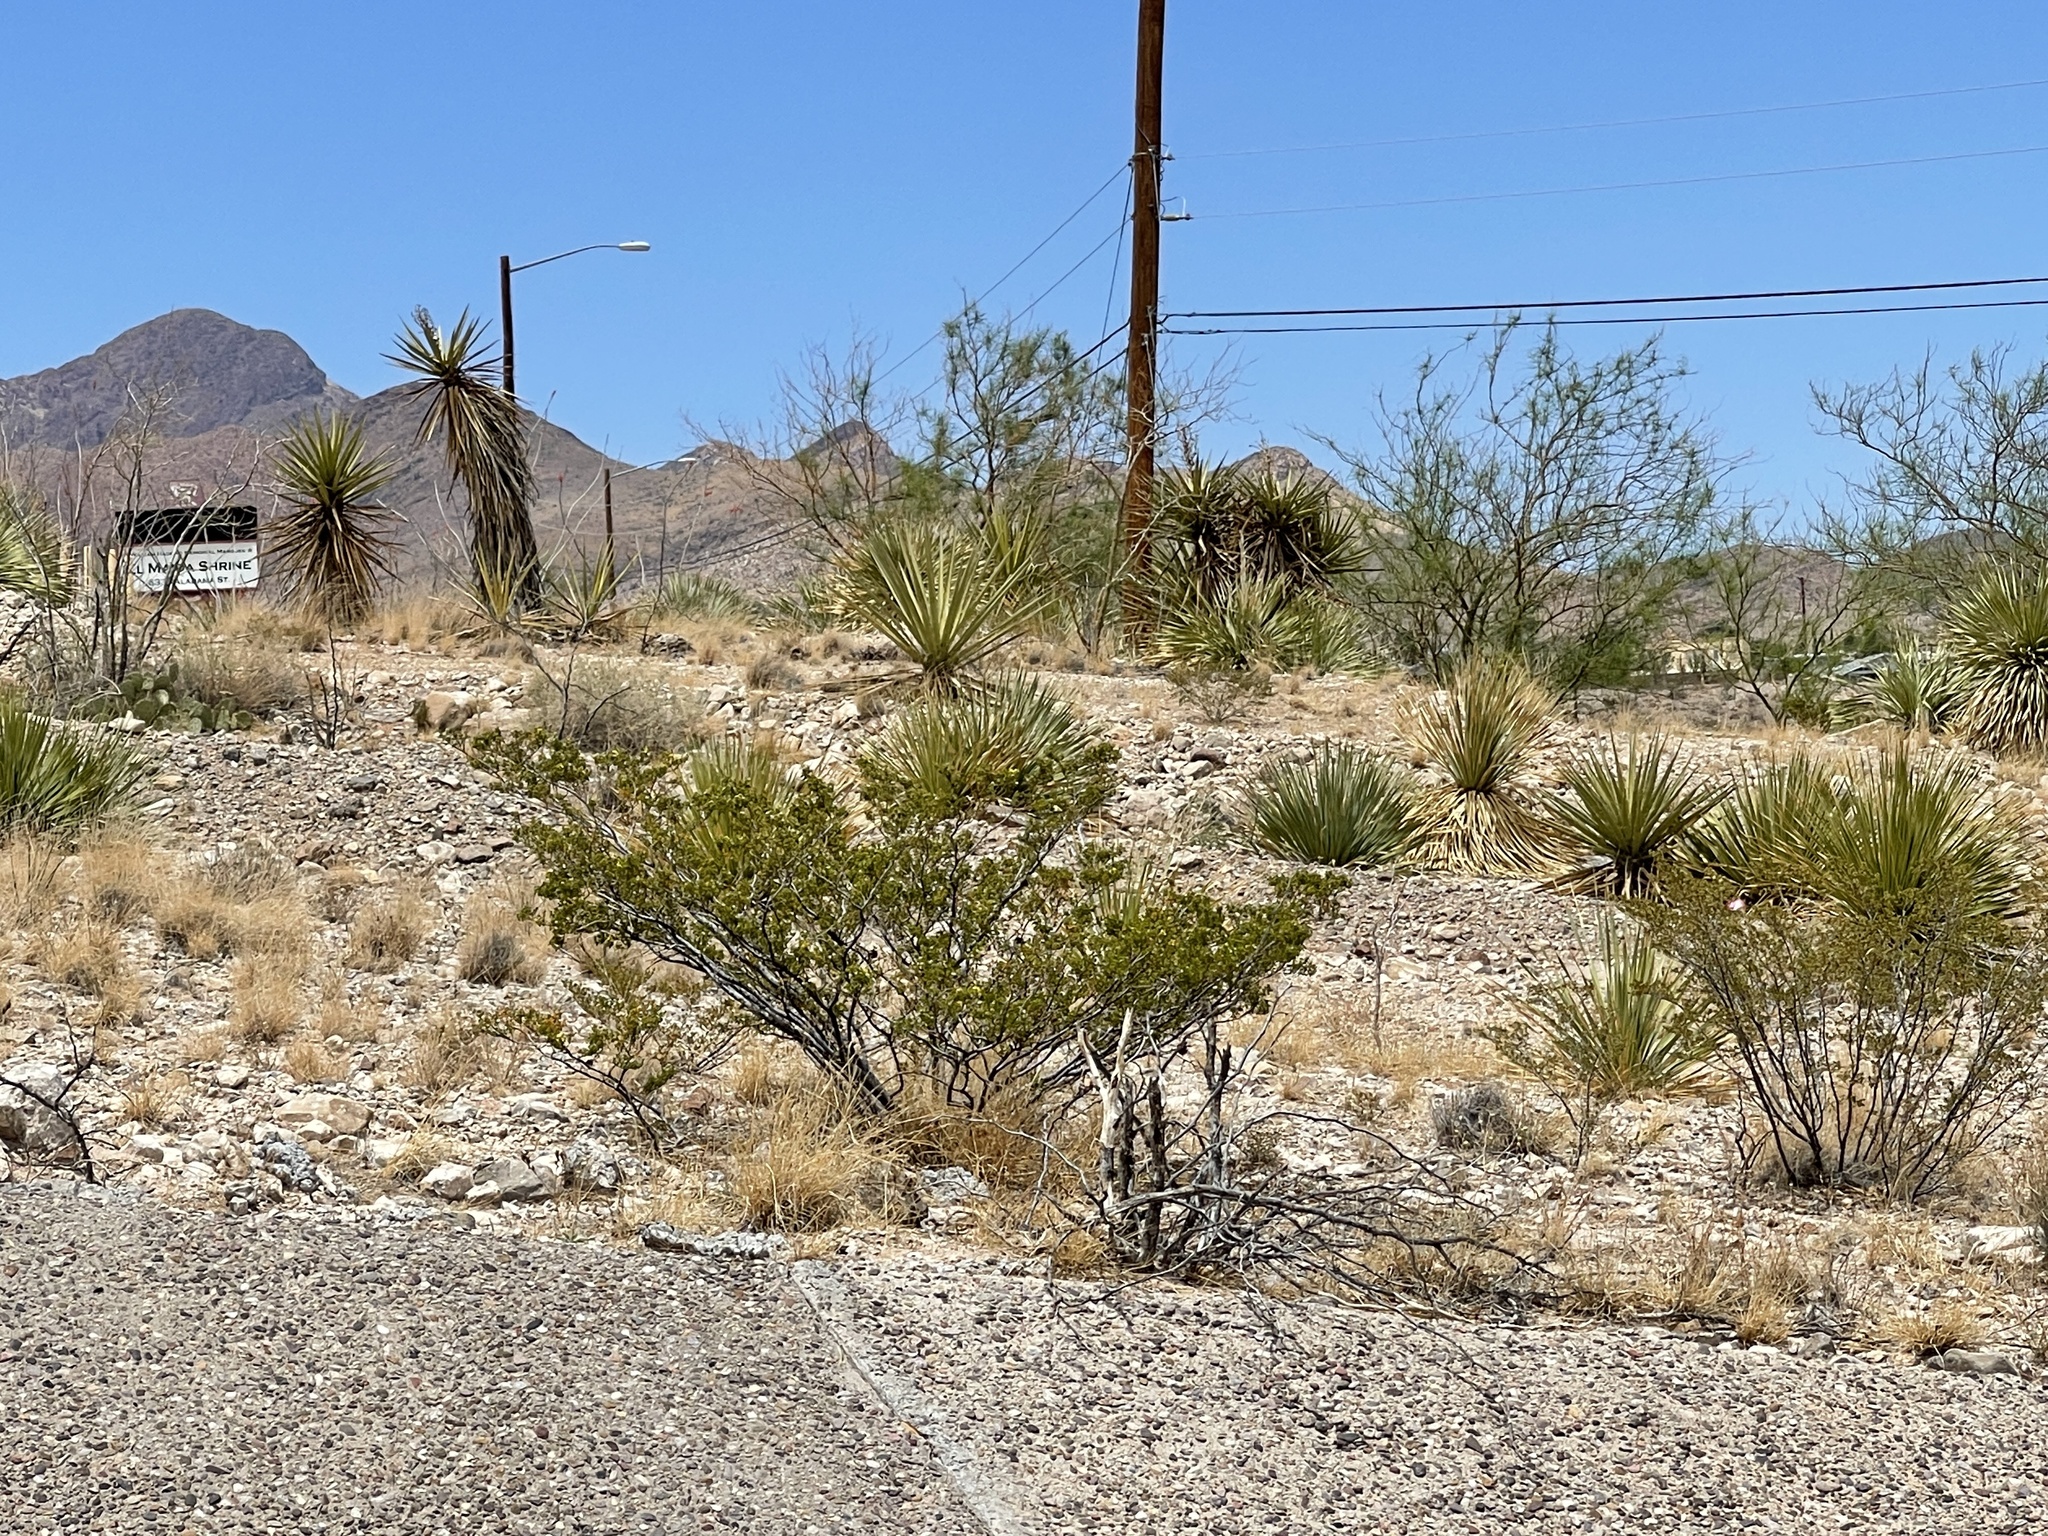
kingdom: Plantae
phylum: Tracheophyta
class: Magnoliopsida
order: Zygophyllales
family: Zygophyllaceae
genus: Larrea
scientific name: Larrea tridentata
